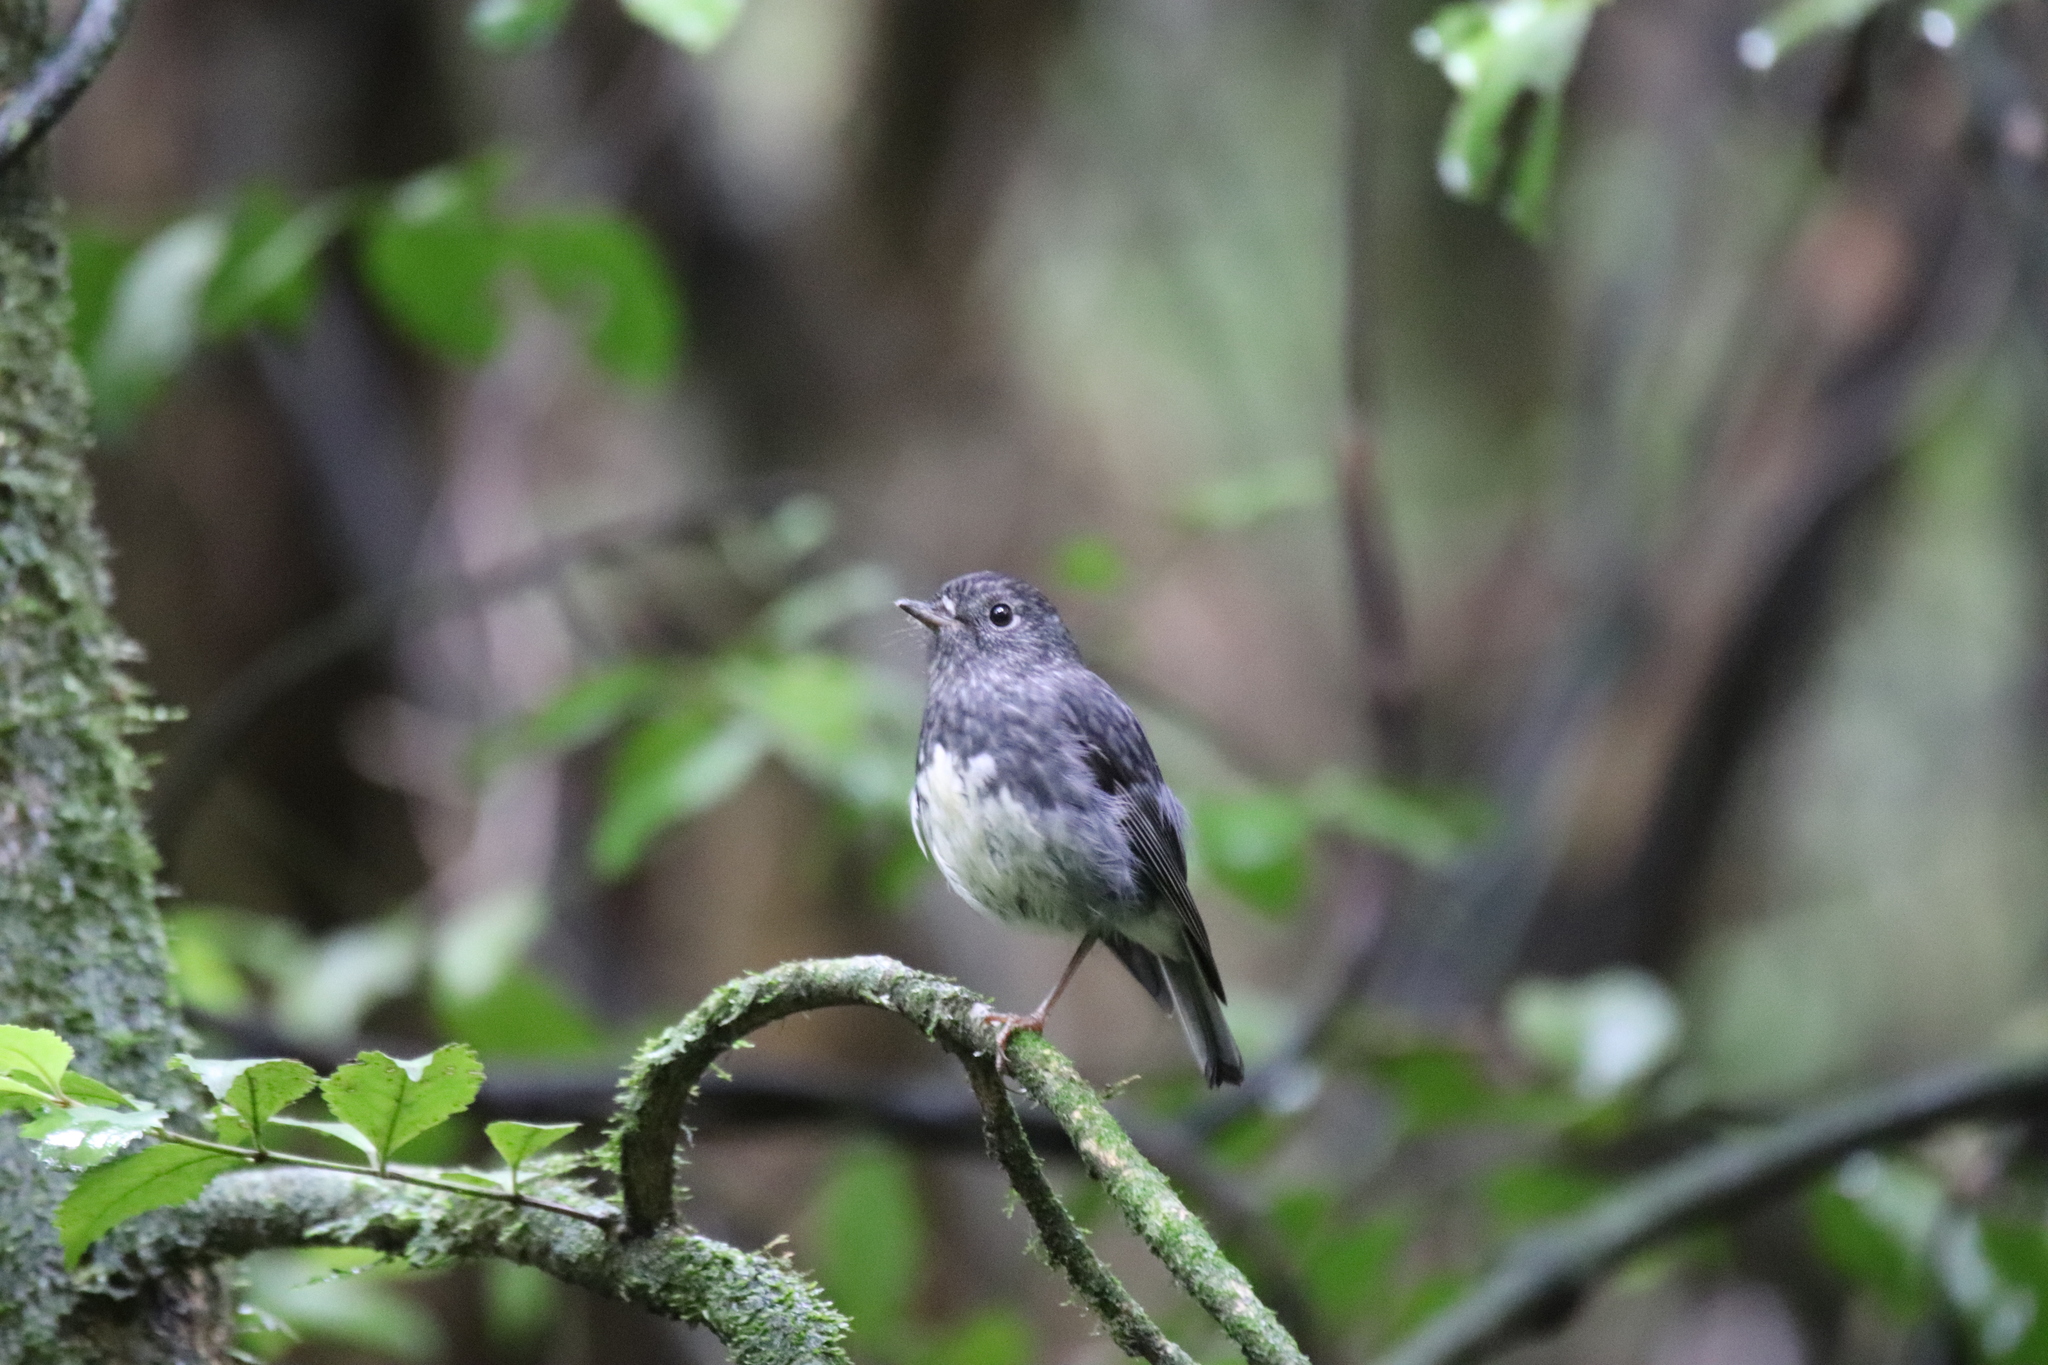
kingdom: Animalia
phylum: Chordata
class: Aves
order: Passeriformes
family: Petroicidae
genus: Petroica
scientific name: Petroica australis
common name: New zealand robin
